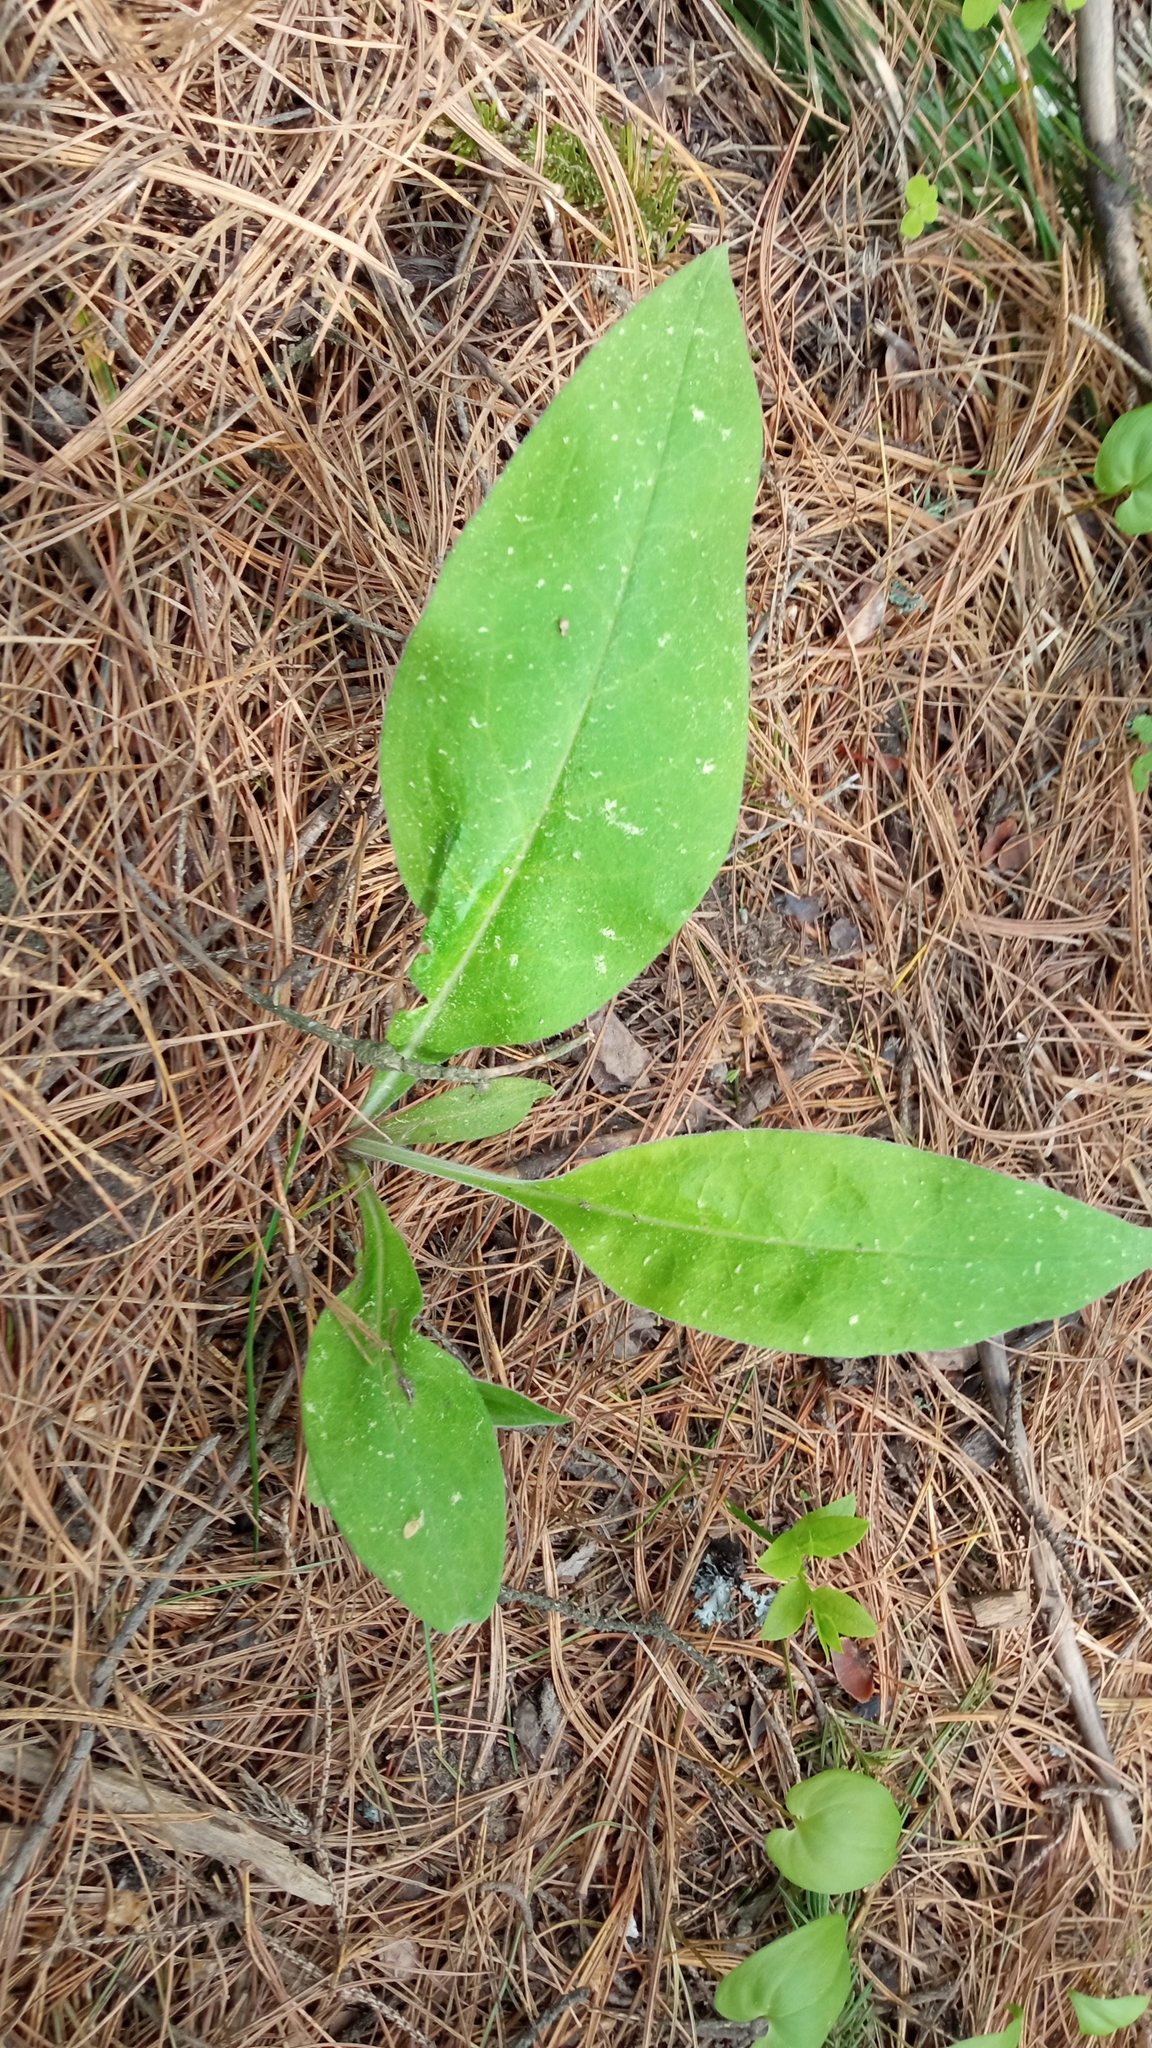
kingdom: Plantae
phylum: Tracheophyta
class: Magnoliopsida
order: Boraginales
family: Boraginaceae
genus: Pulmonaria
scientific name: Pulmonaria mollis
